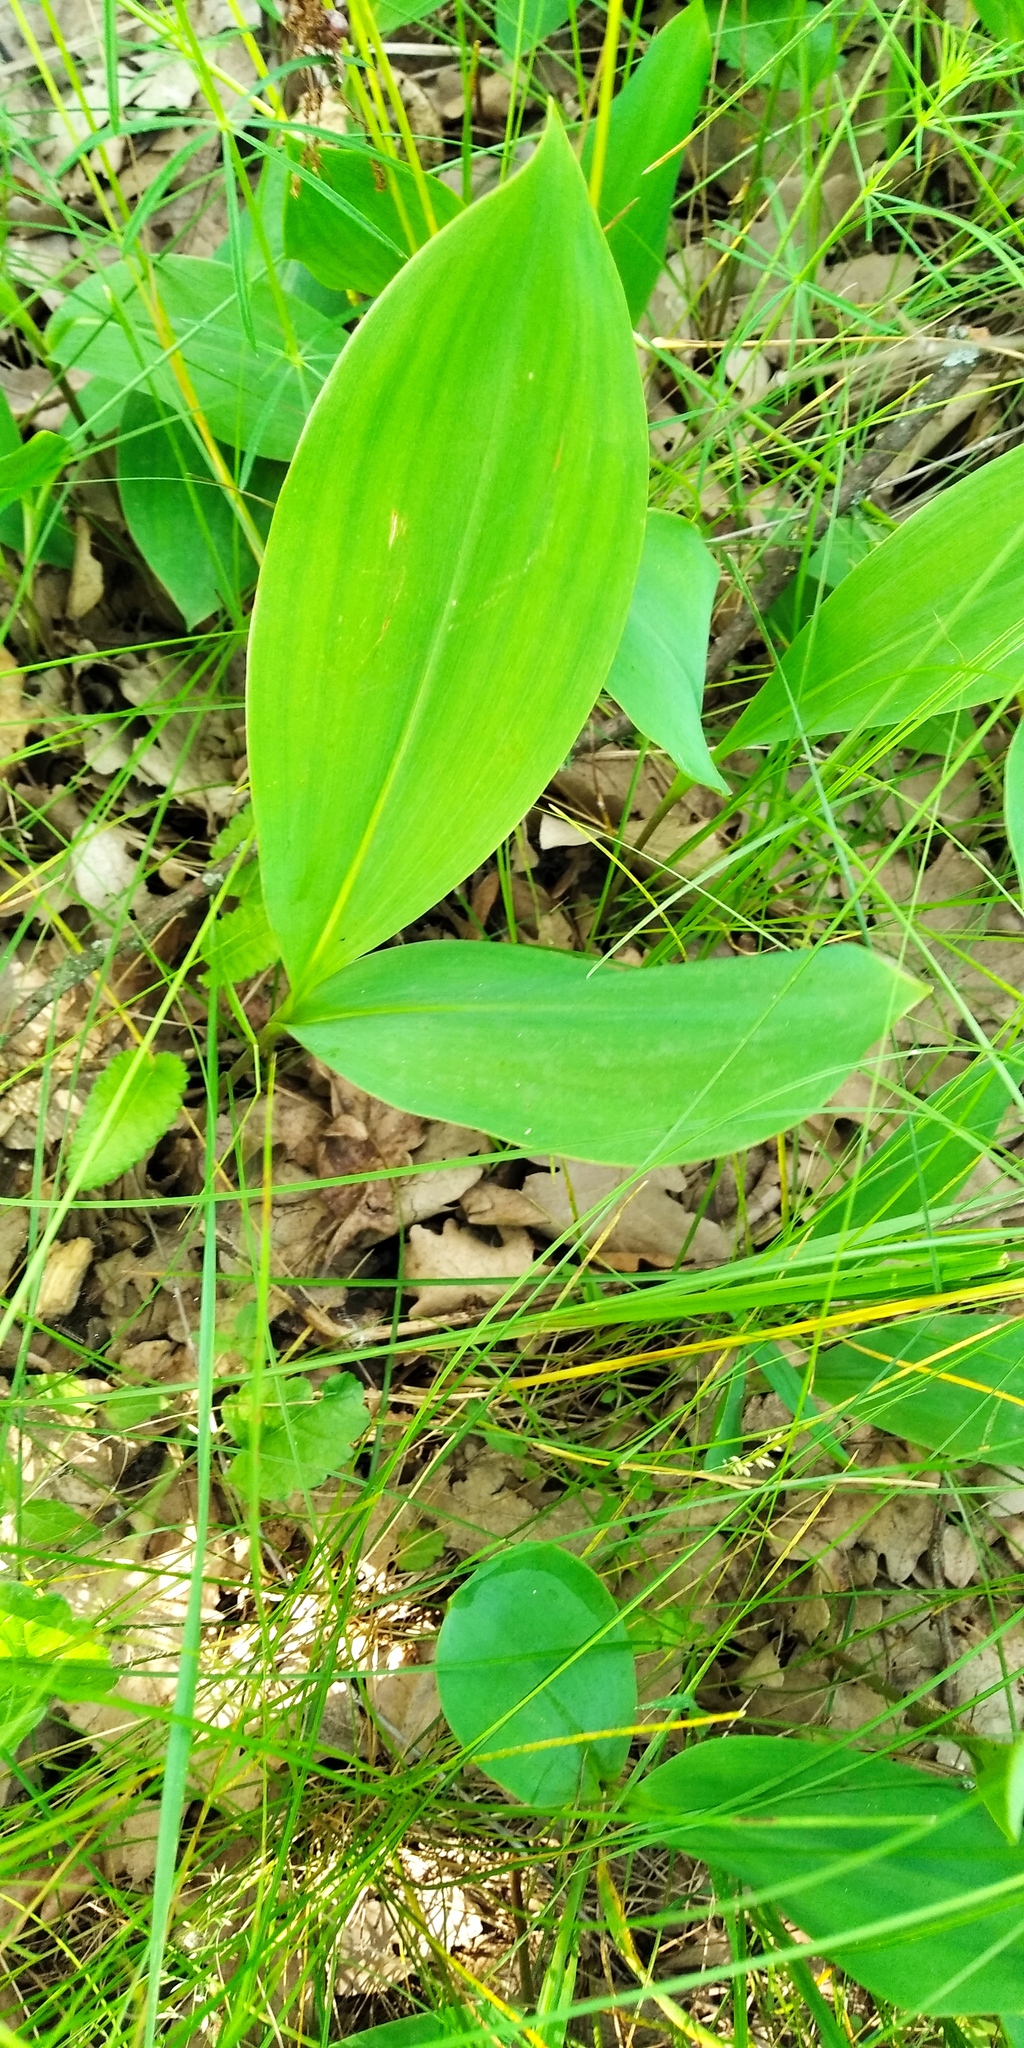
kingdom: Plantae
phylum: Tracheophyta
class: Liliopsida
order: Asparagales
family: Asparagaceae
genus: Convallaria
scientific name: Convallaria majalis
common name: Lily-of-the-valley
